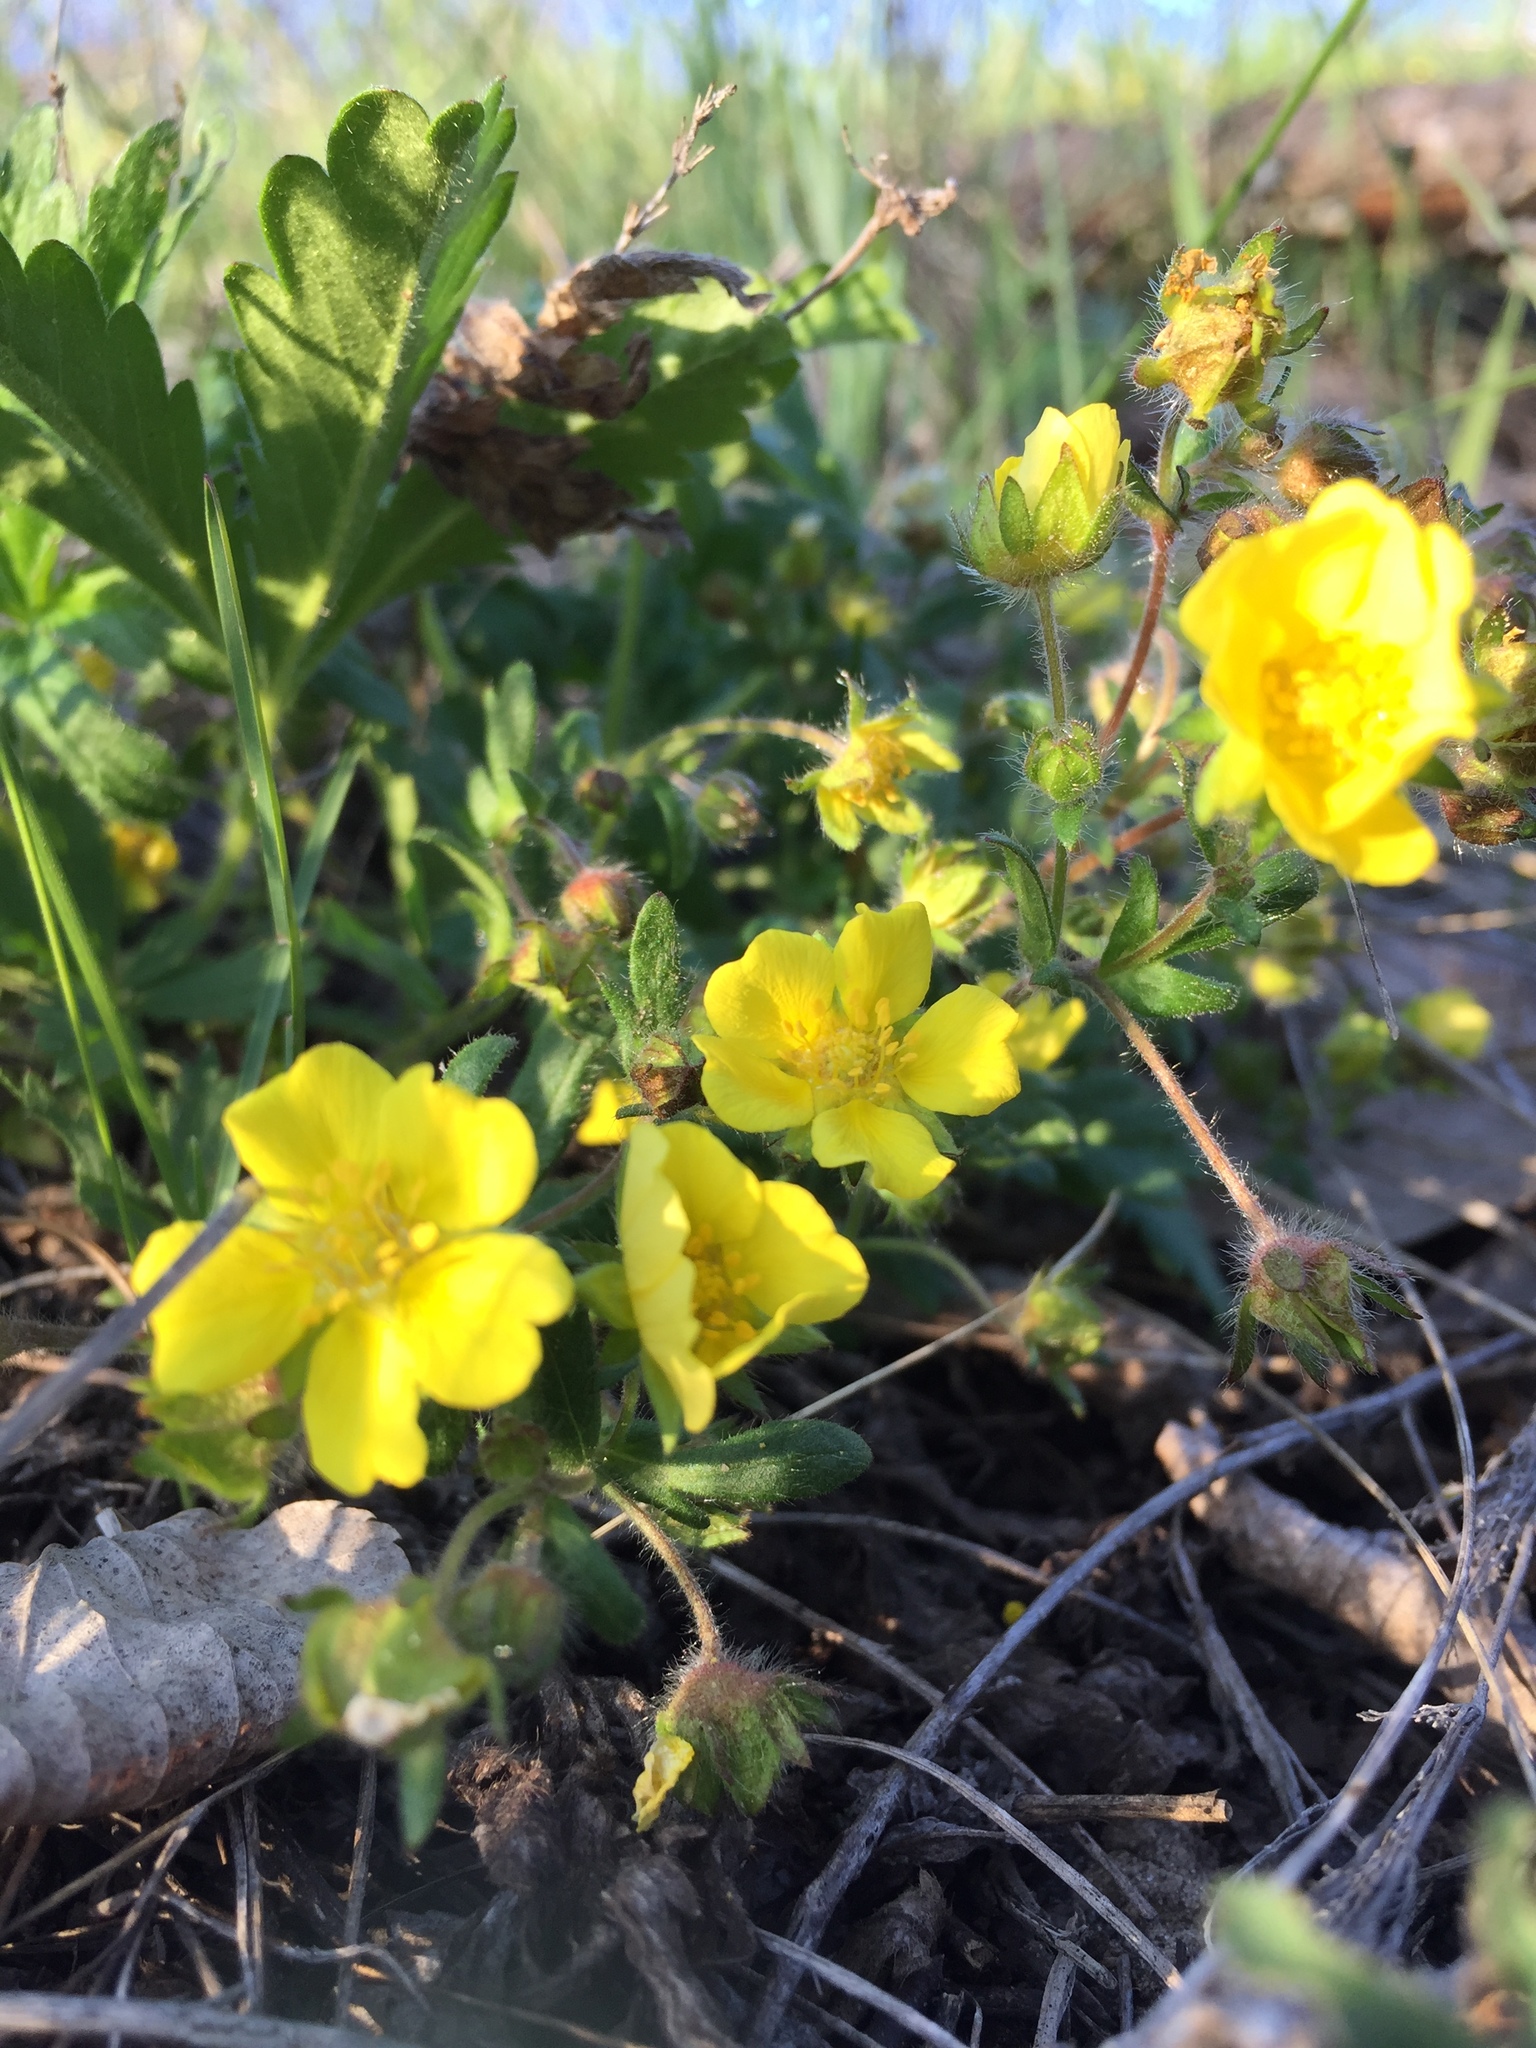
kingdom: Plantae
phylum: Tracheophyta
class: Magnoliopsida
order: Rosales
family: Rosaceae
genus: Potentilla
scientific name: Potentilla humifusa
